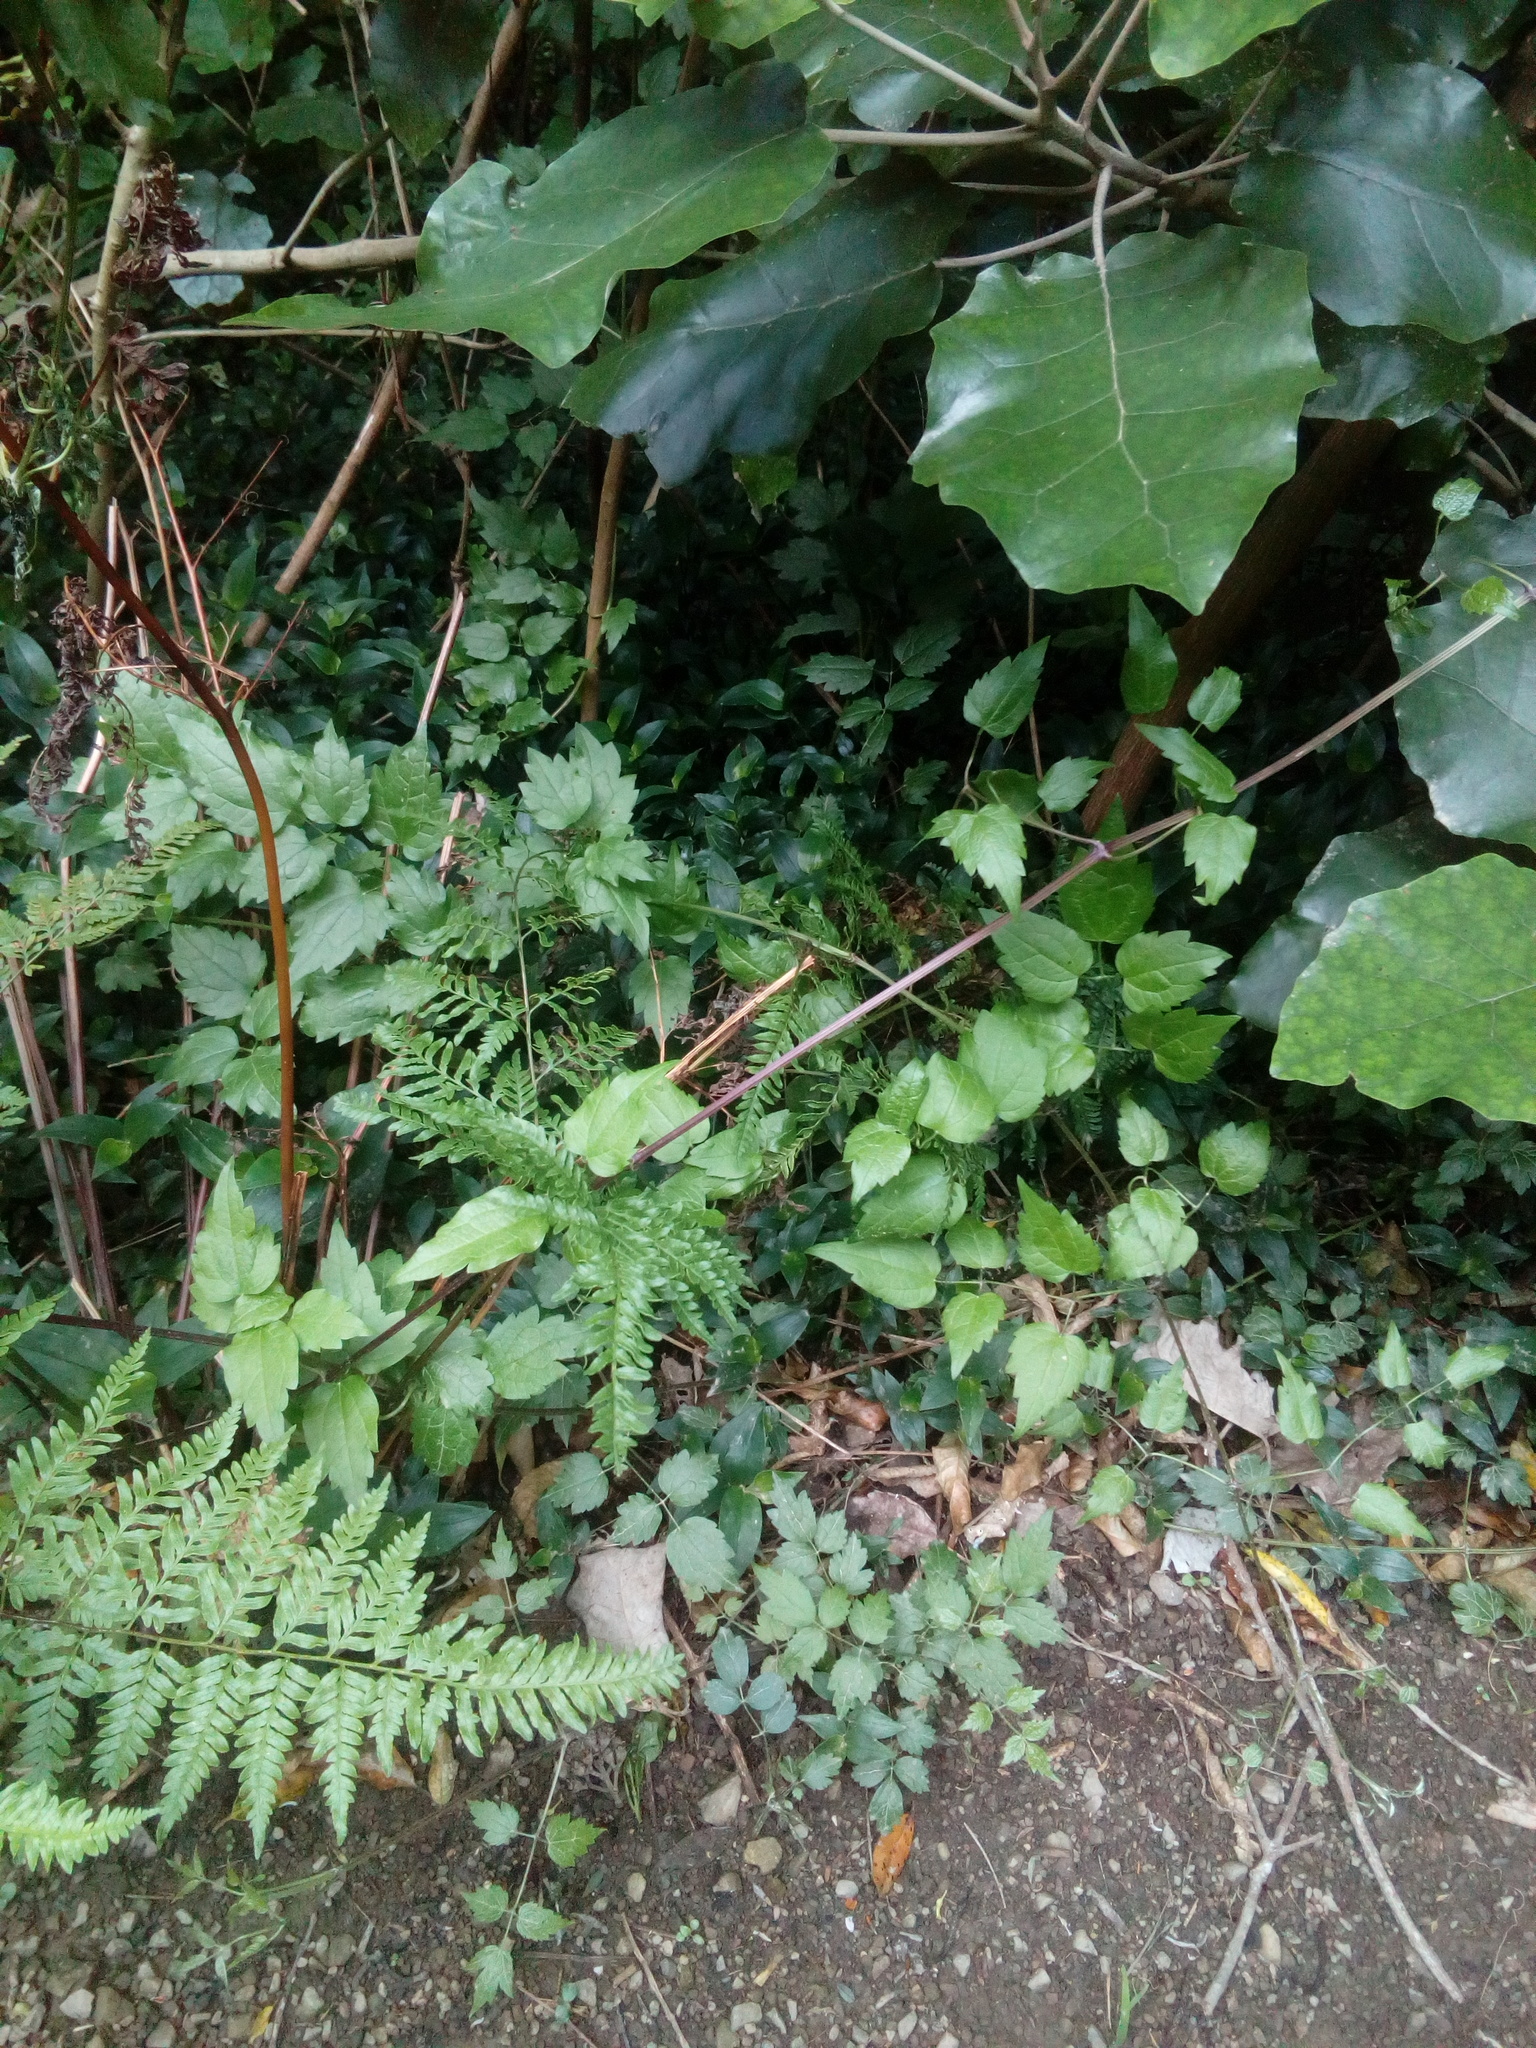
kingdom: Plantae
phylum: Tracheophyta
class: Magnoliopsida
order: Ranunculales
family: Ranunculaceae
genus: Clematis
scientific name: Clematis vitalba
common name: Evergreen clematis
